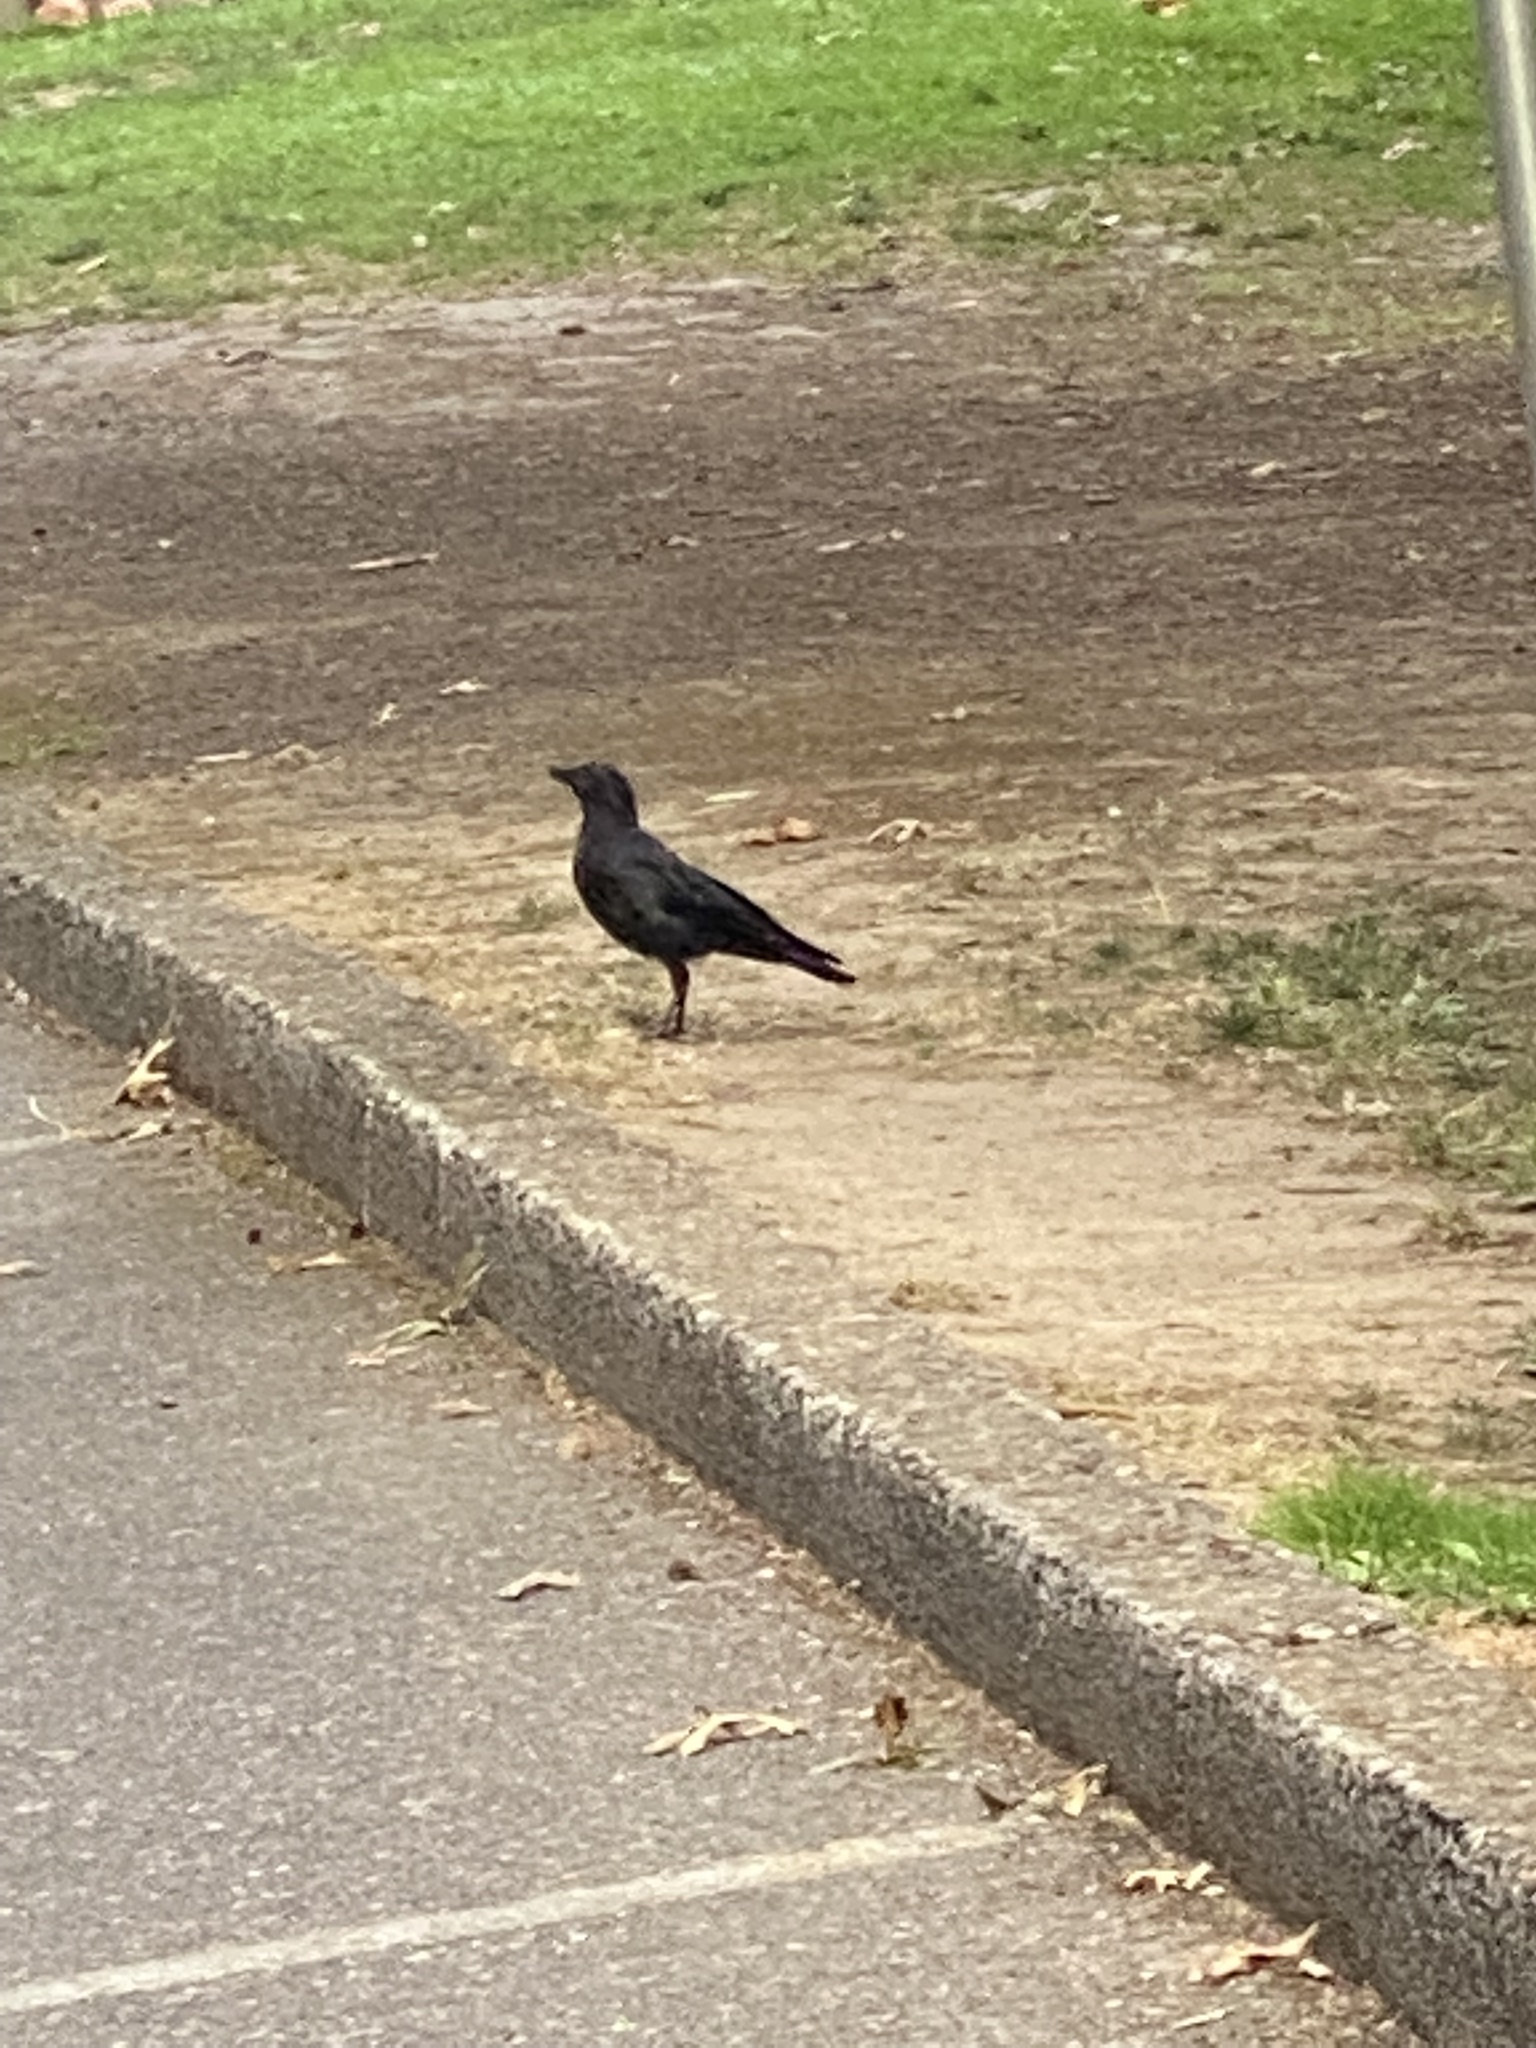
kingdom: Animalia
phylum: Chordata
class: Aves
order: Passeriformes
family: Corvidae
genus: Corvus
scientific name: Corvus brachyrhynchos
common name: American crow
